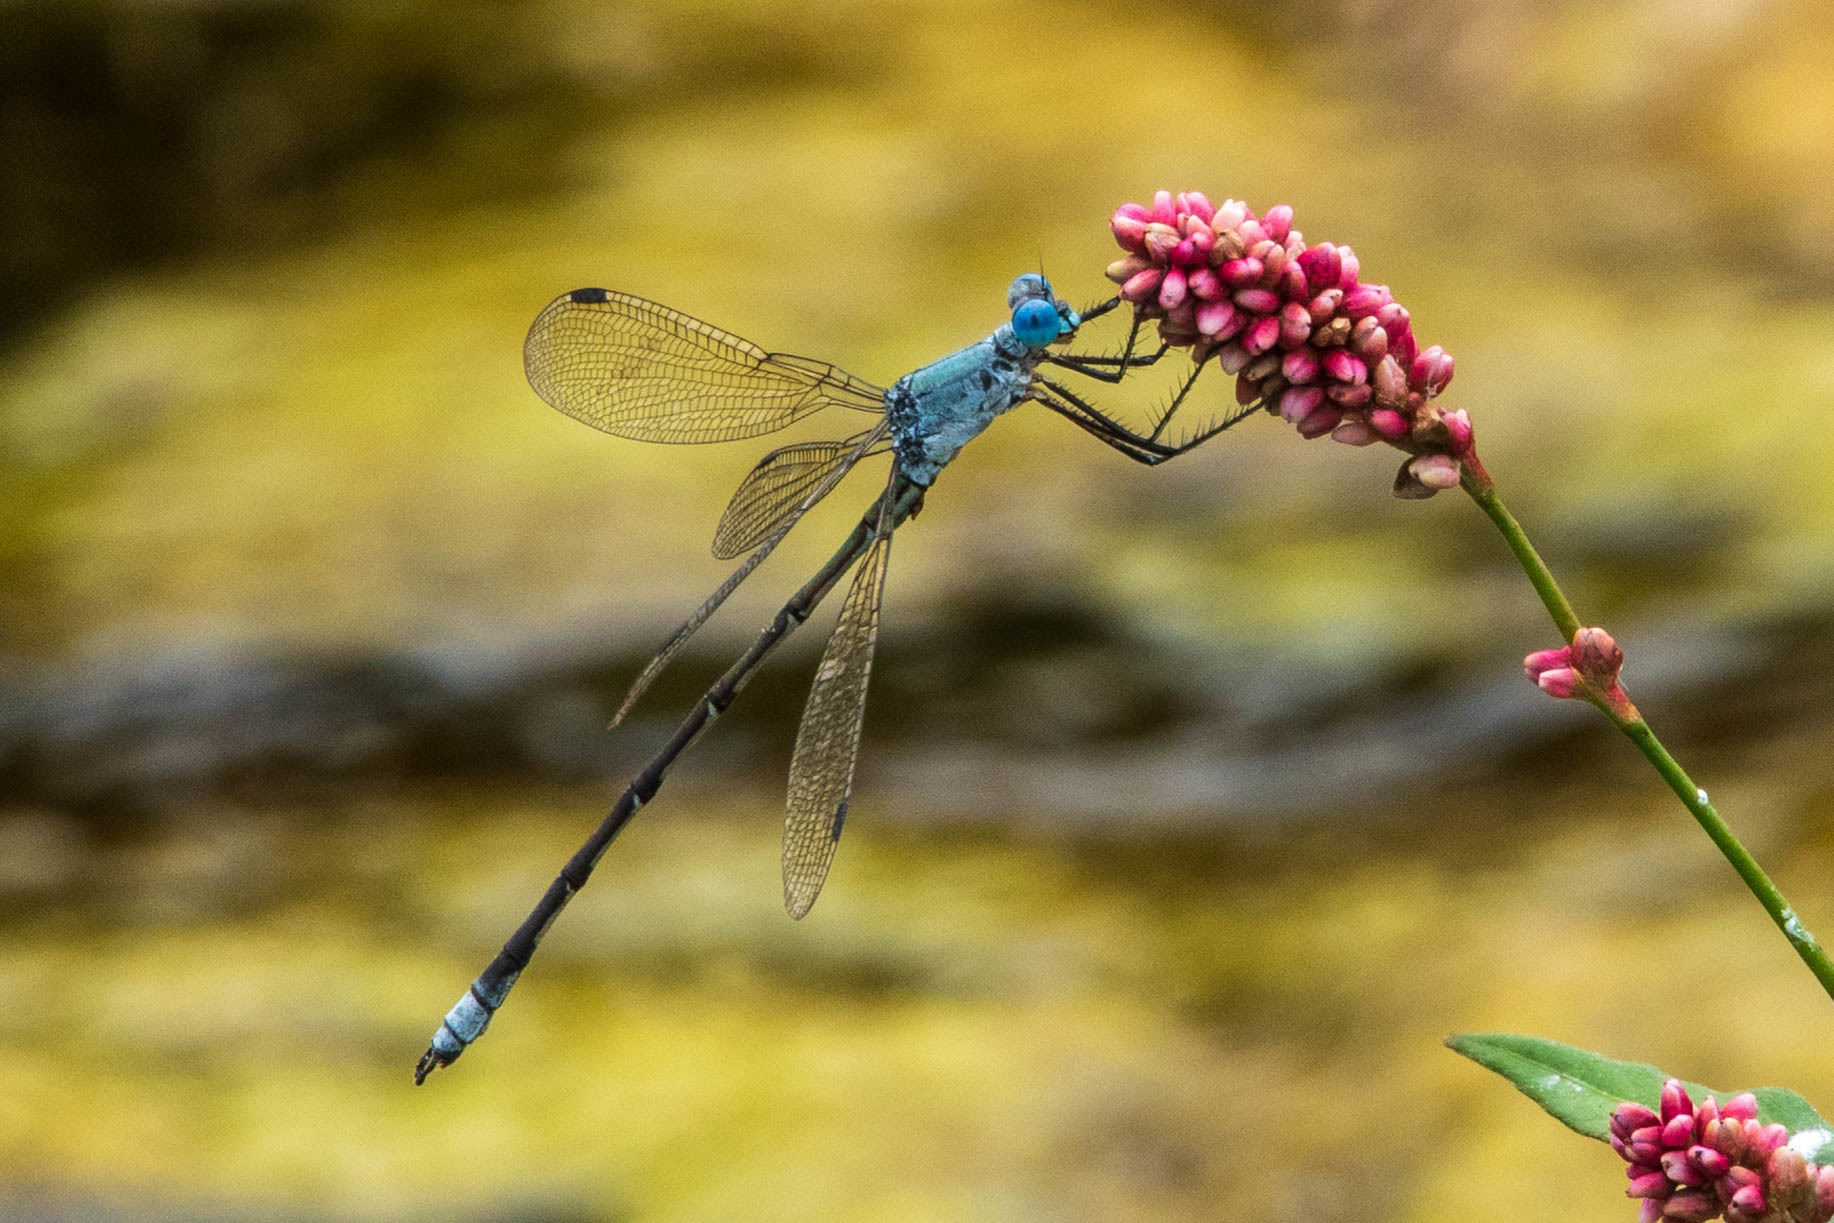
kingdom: Animalia
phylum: Arthropoda
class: Insecta
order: Odonata
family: Lestidae
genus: Lestes
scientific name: Lestes eurinus
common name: Amber-winged spreadwing
